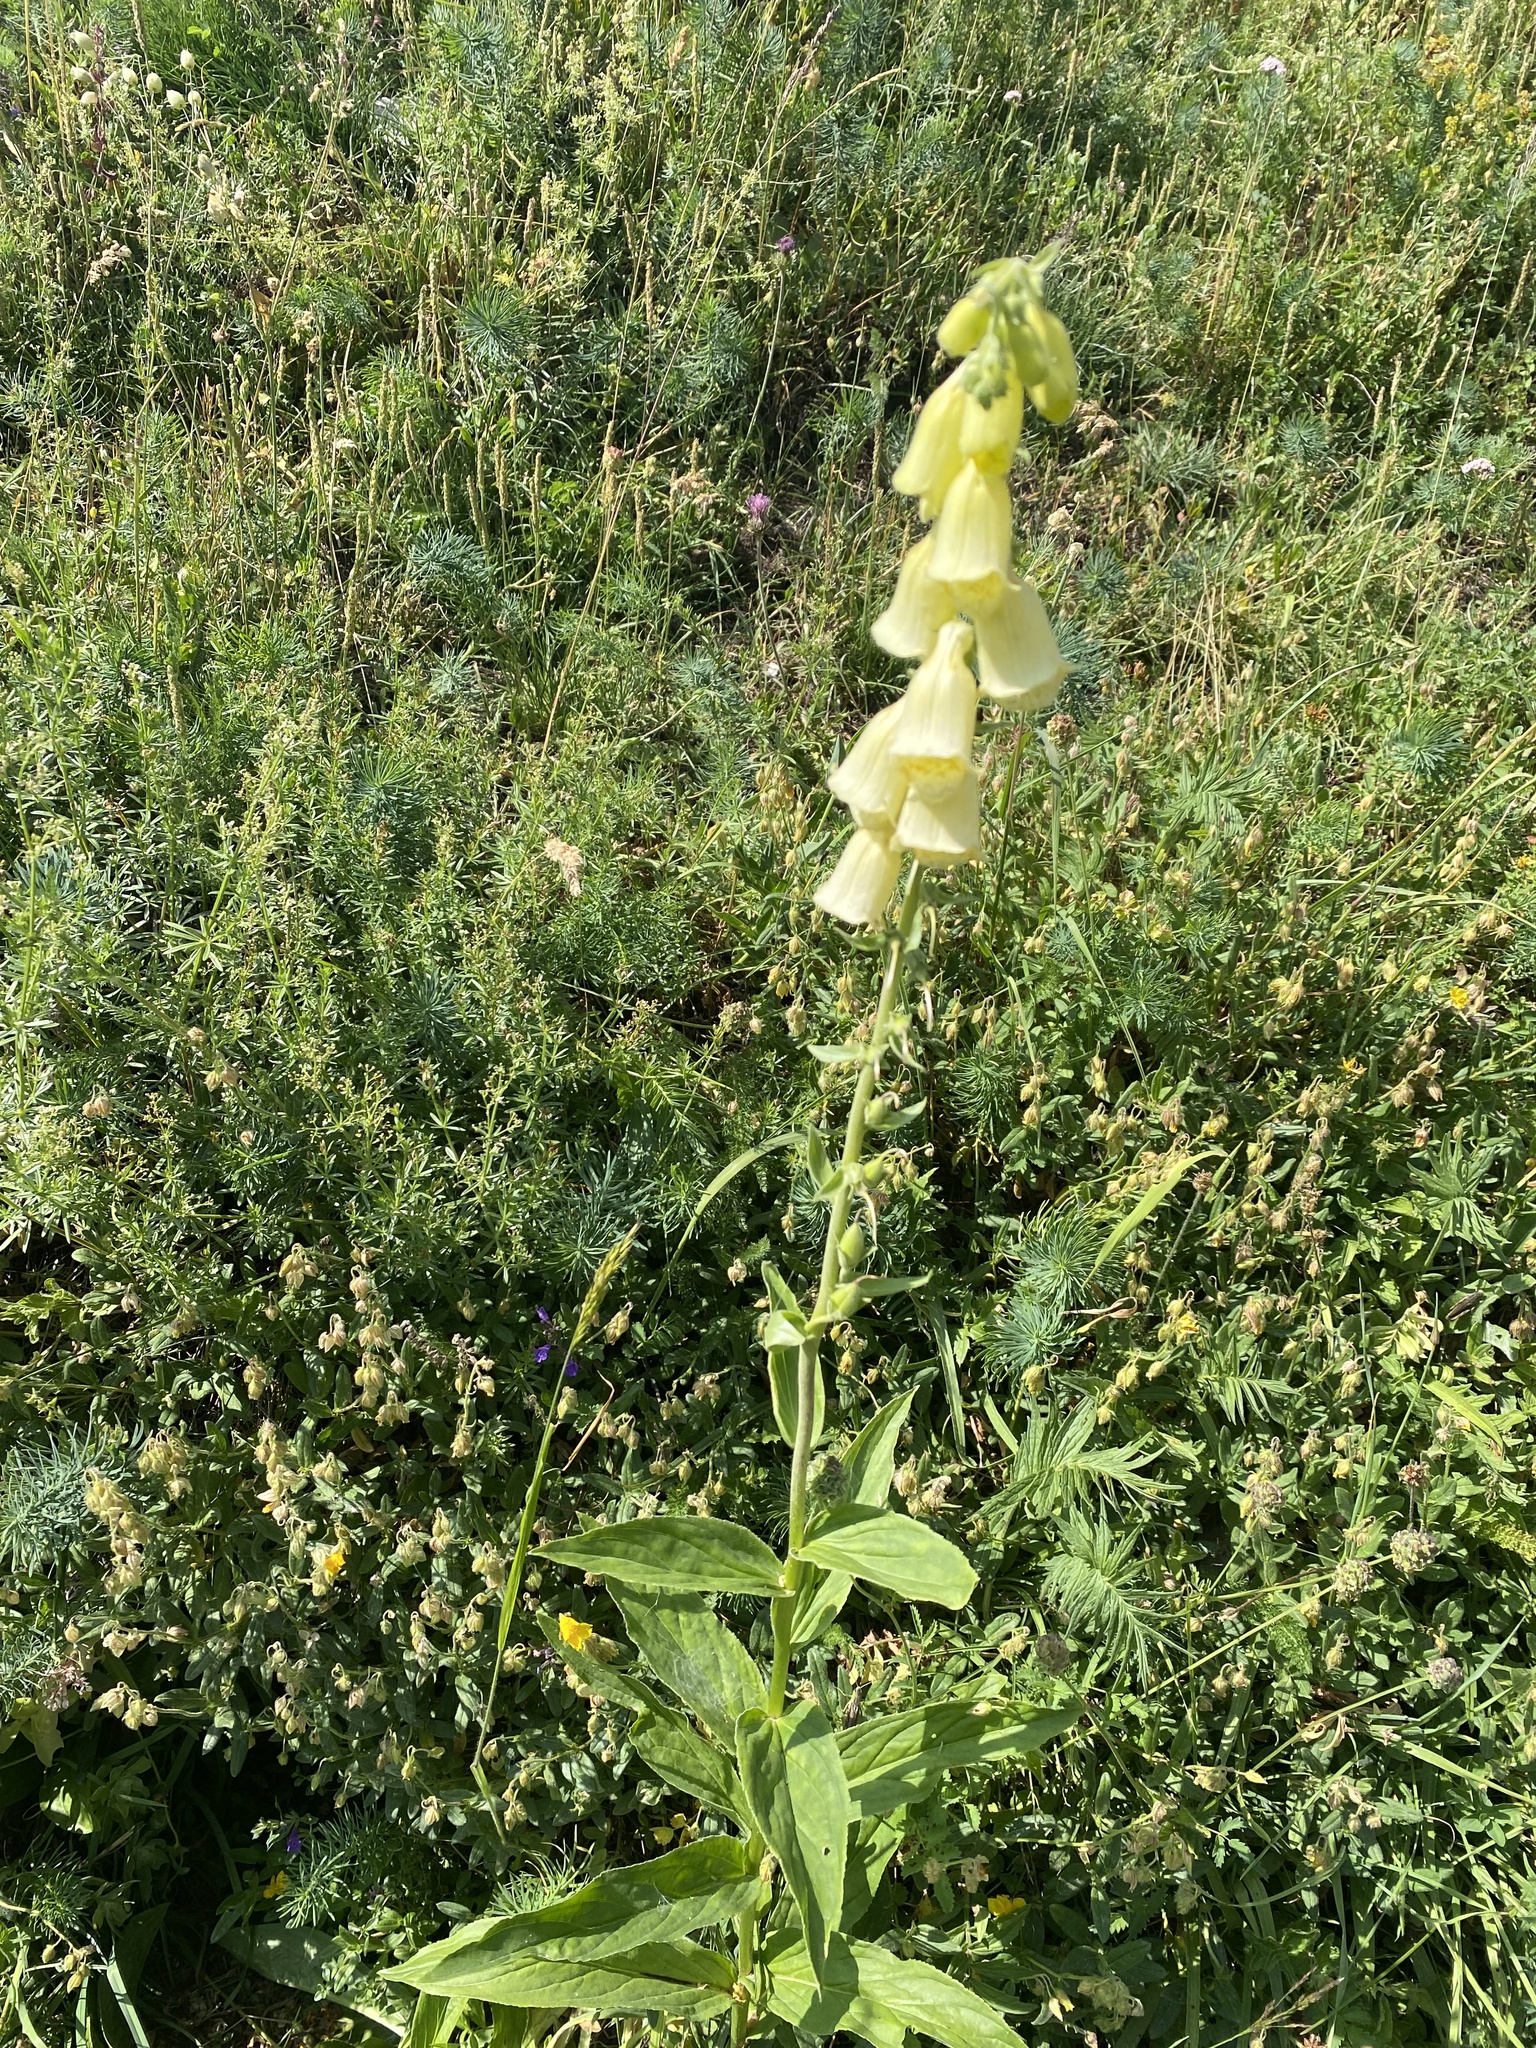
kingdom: Plantae
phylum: Tracheophyta
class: Magnoliopsida
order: Lamiales
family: Plantaginaceae
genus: Digitalis
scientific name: Digitalis grandiflora
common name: Yellow foxglove
